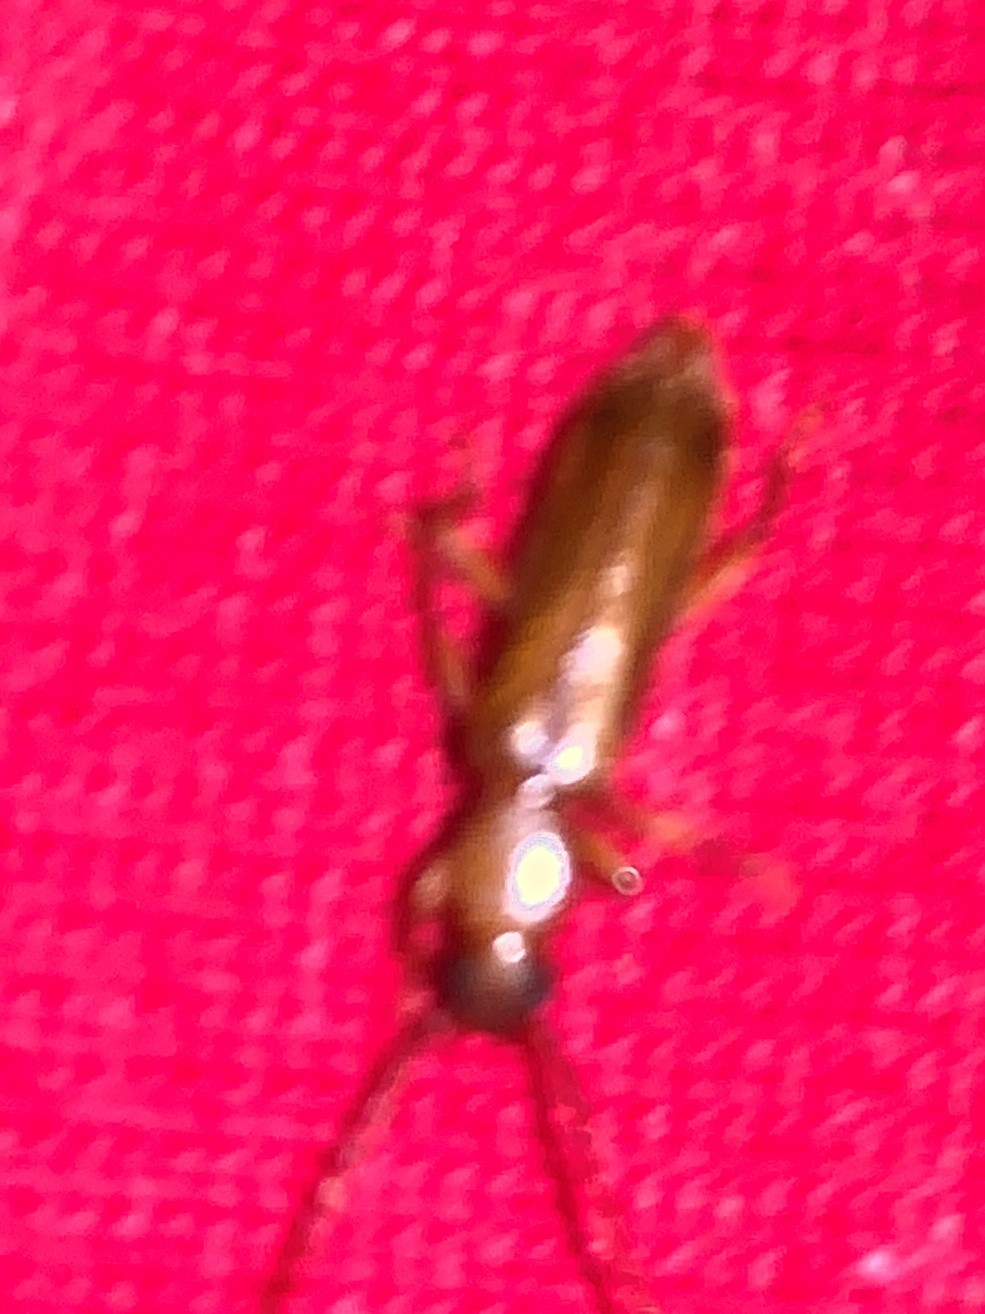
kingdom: Animalia
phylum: Arthropoda
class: Insecta
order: Coleoptera
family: Cerambycidae
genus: Smodicum
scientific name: Smodicum cucujiforme
